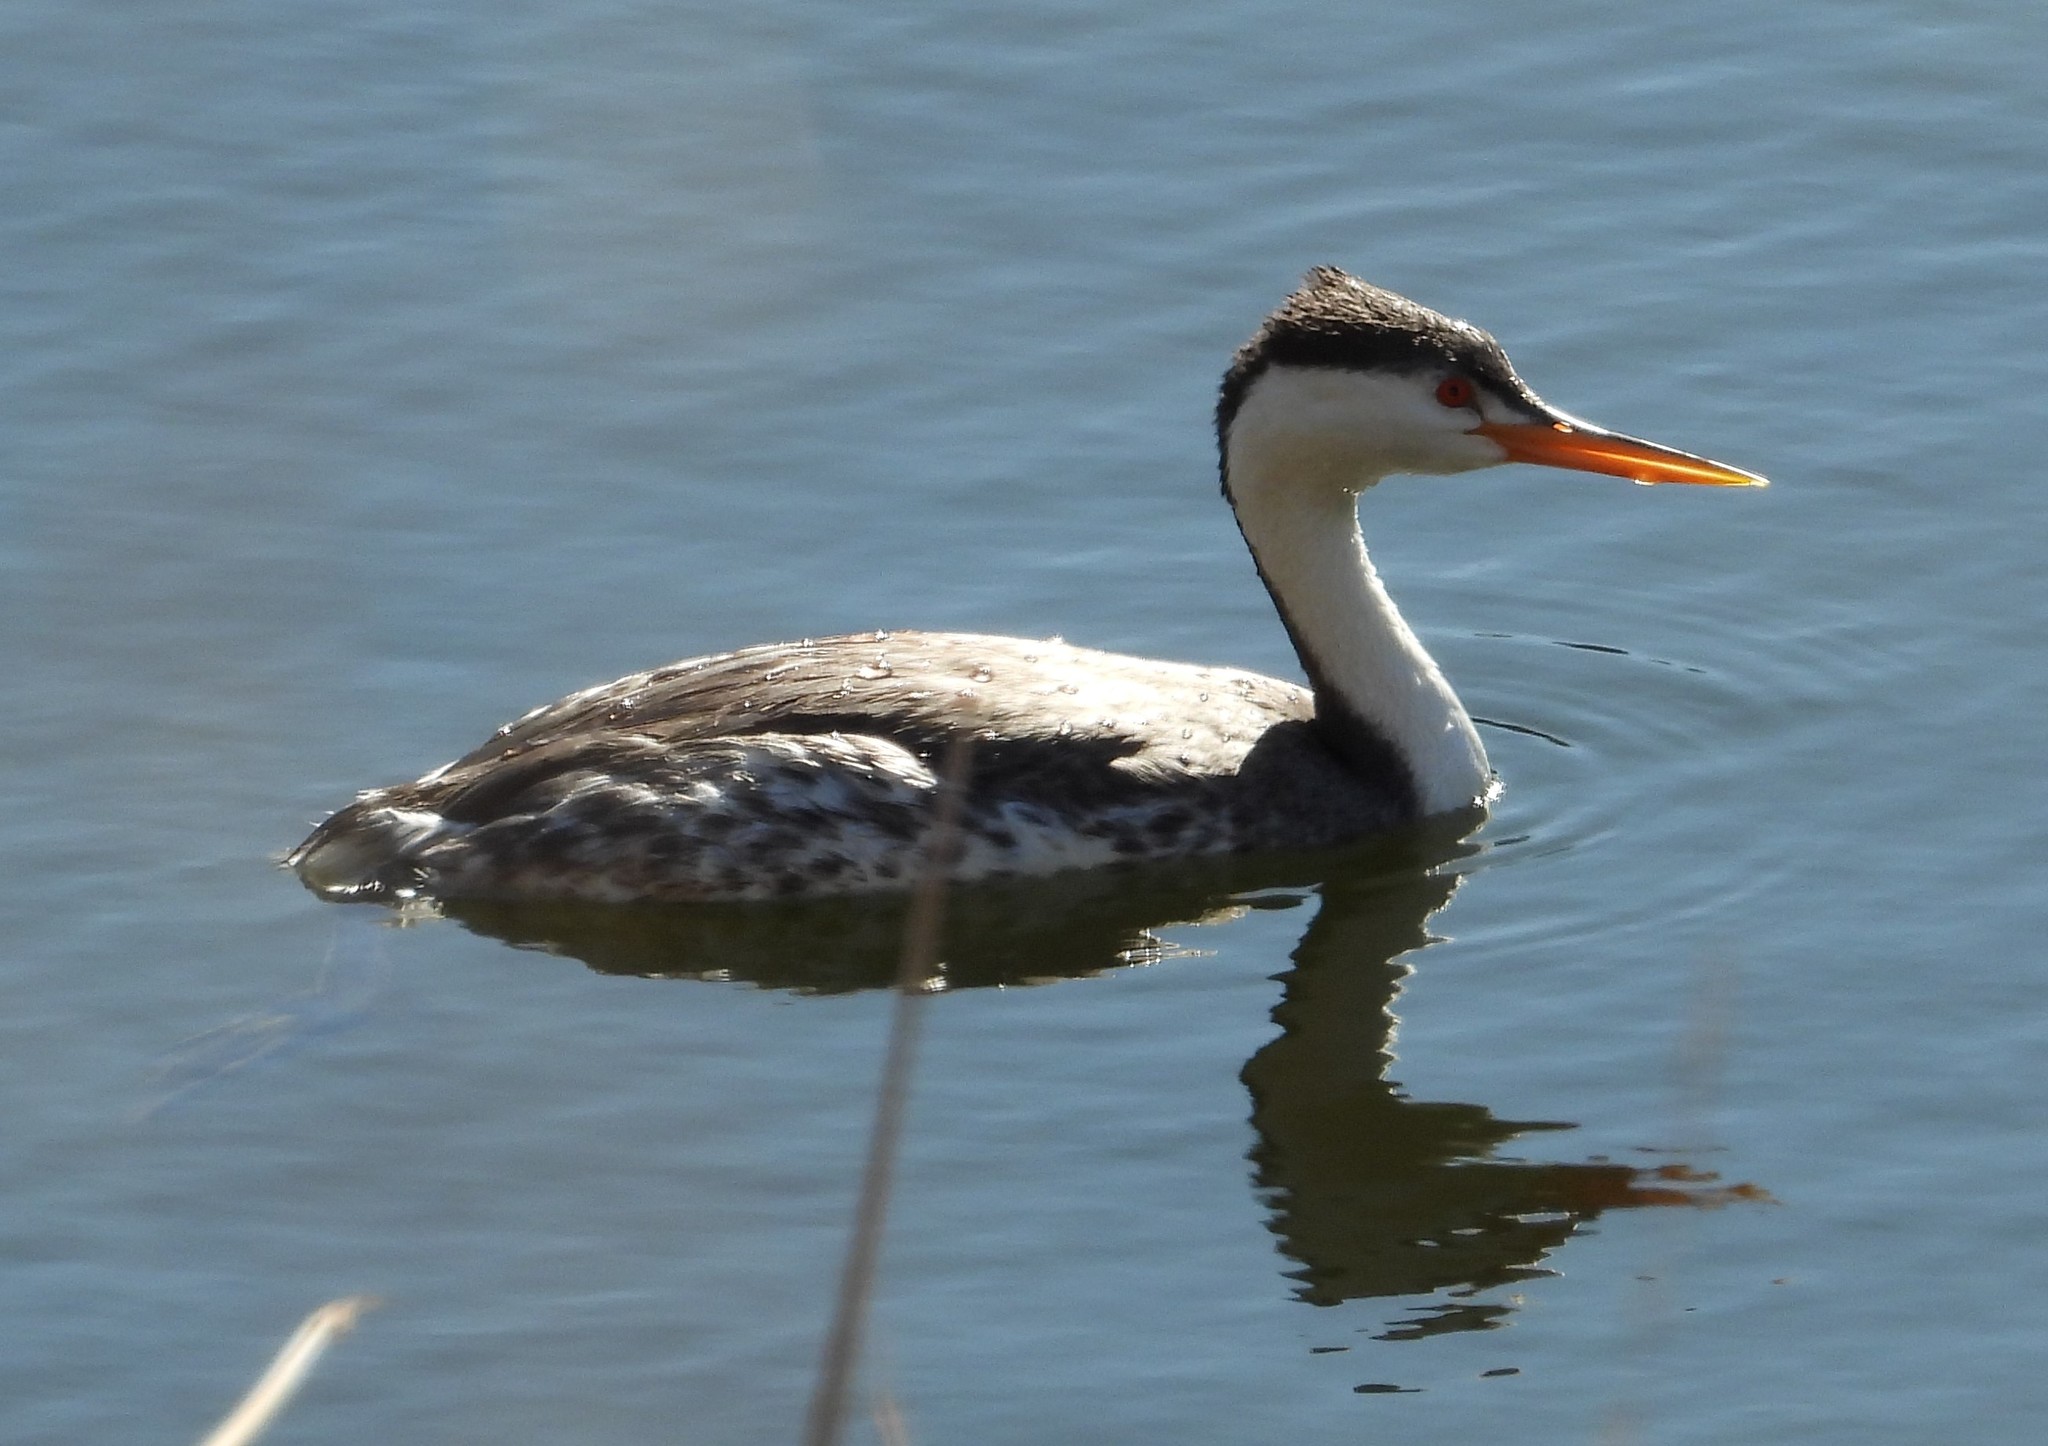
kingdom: Animalia
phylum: Chordata
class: Aves
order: Podicipediformes
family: Podicipedidae
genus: Aechmophorus
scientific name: Aechmophorus clarkii
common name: Clark's grebe
